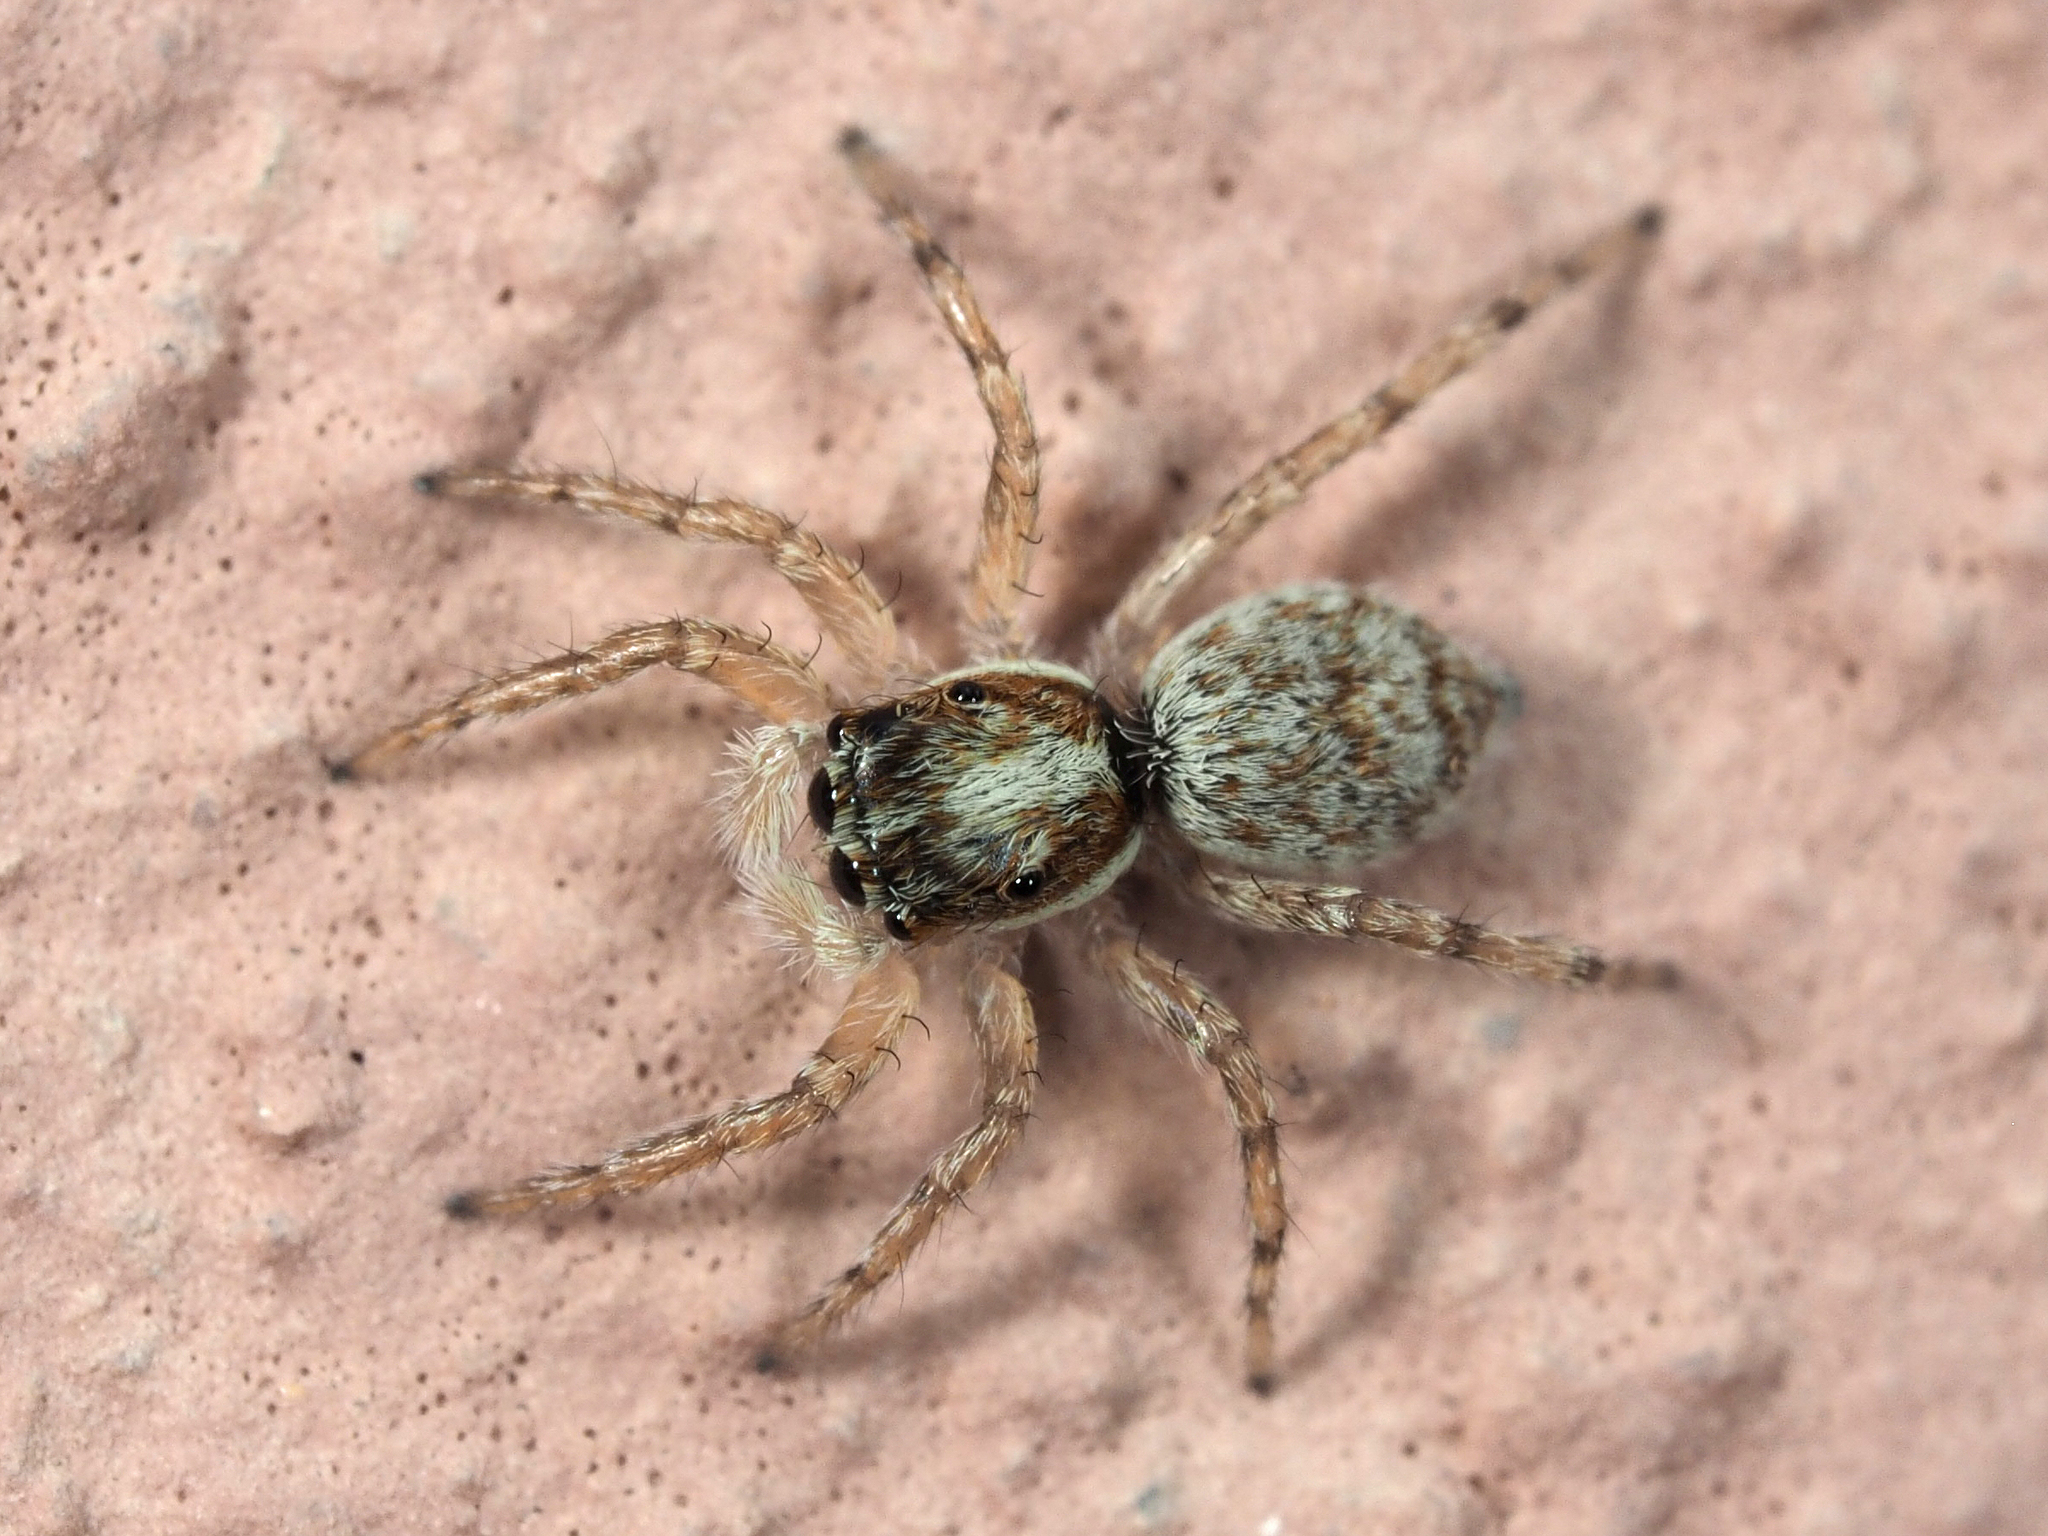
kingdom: Animalia
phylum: Arthropoda
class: Arachnida
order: Araneae
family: Salticidae
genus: Menemerus
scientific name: Menemerus semilimbatus
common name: Jumping spider
